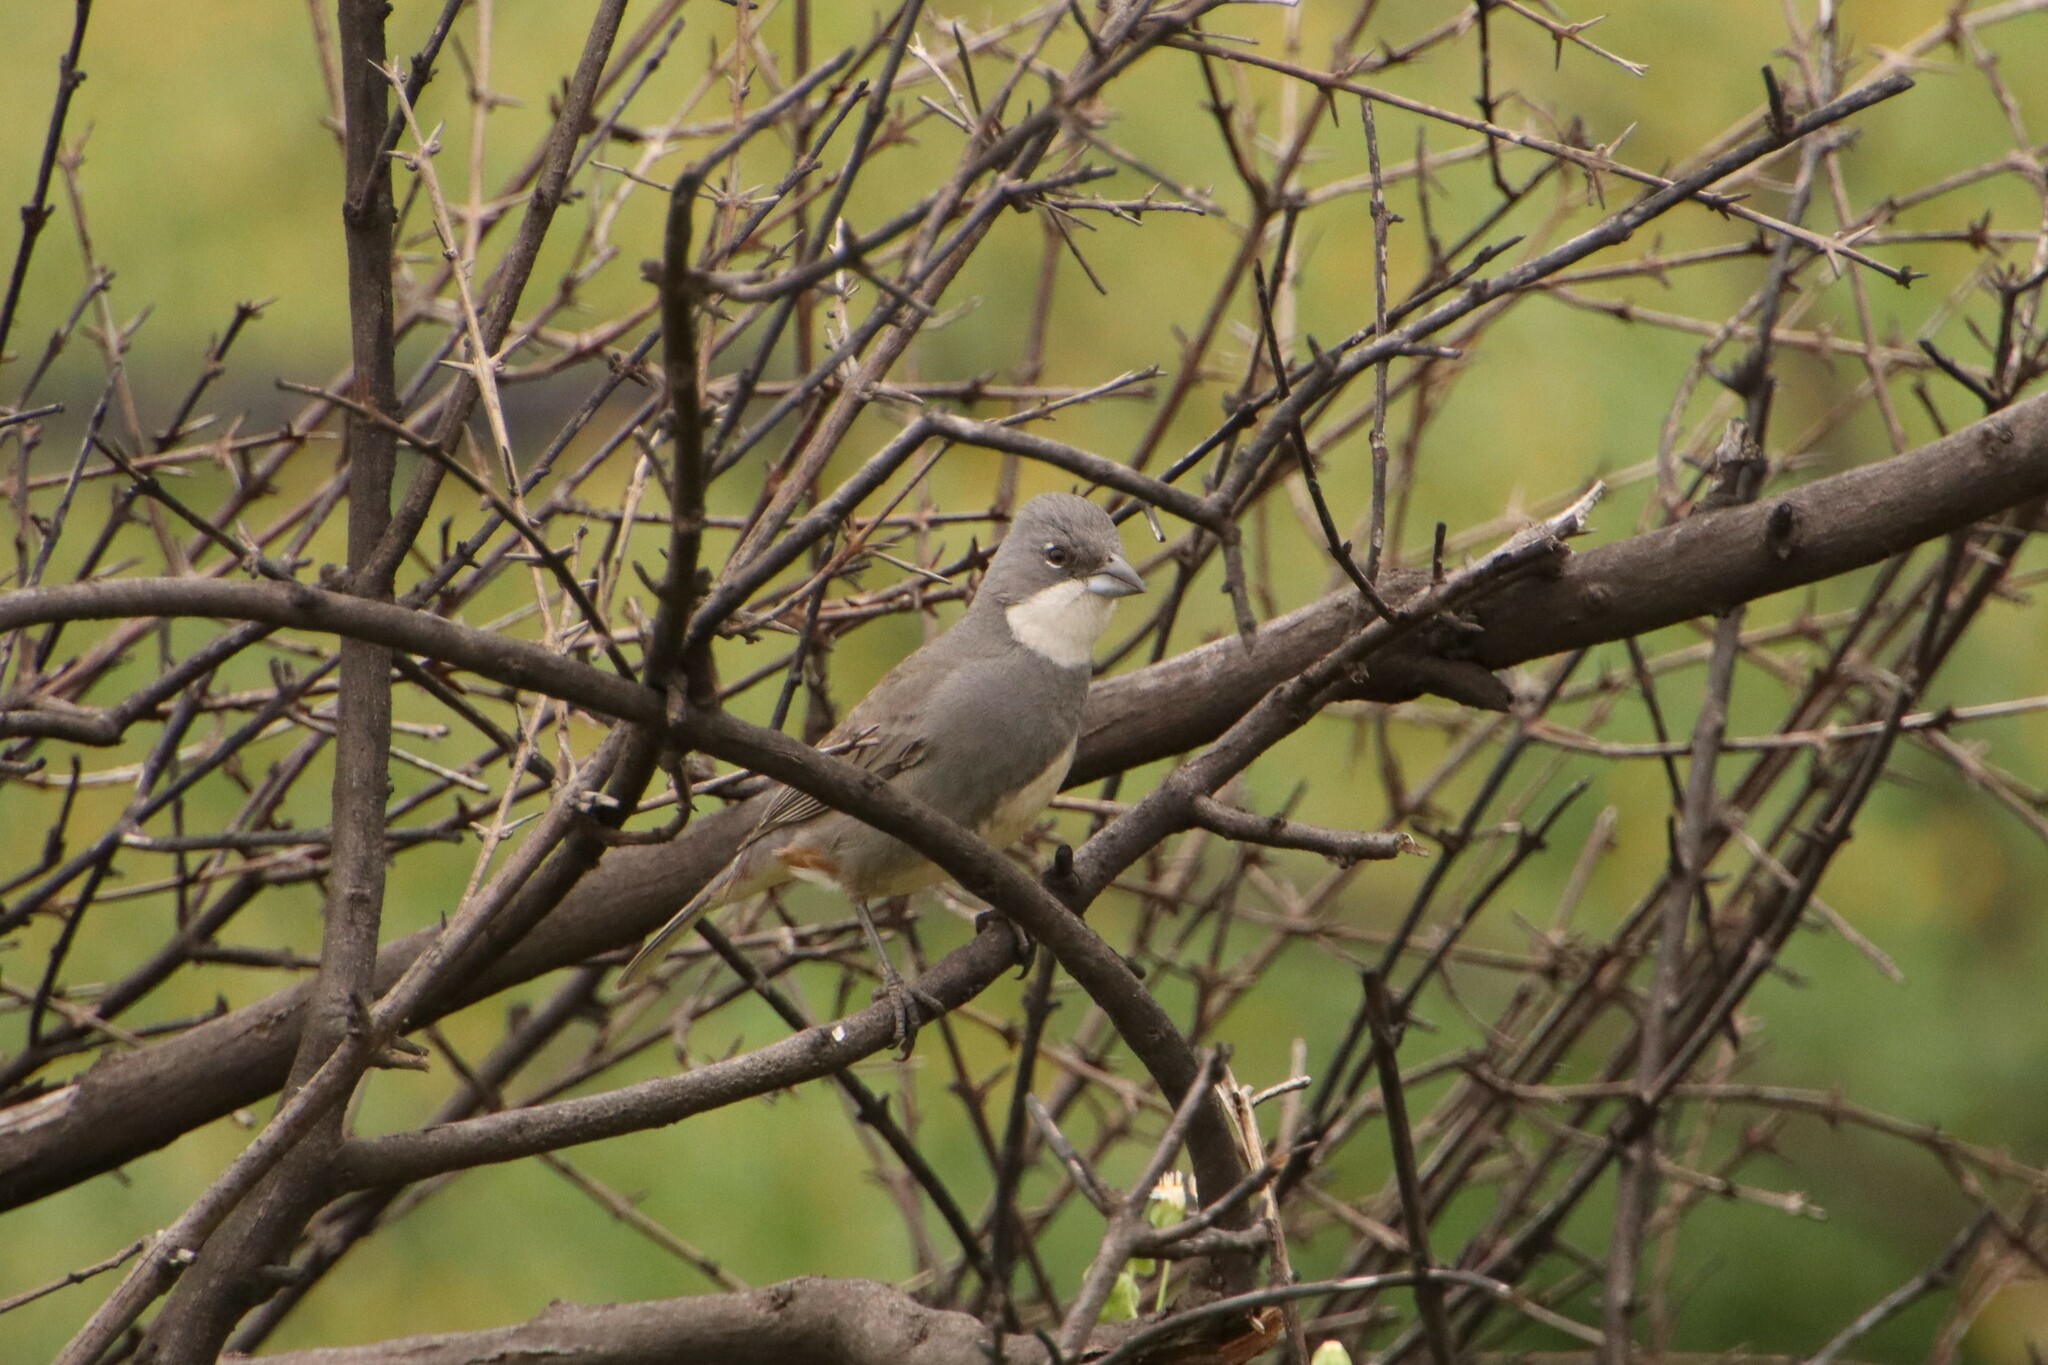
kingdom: Animalia
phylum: Chordata
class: Aves
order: Passeriformes
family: Thraupidae
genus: Diuca
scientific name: Diuca diuca
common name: Common diuca finch
